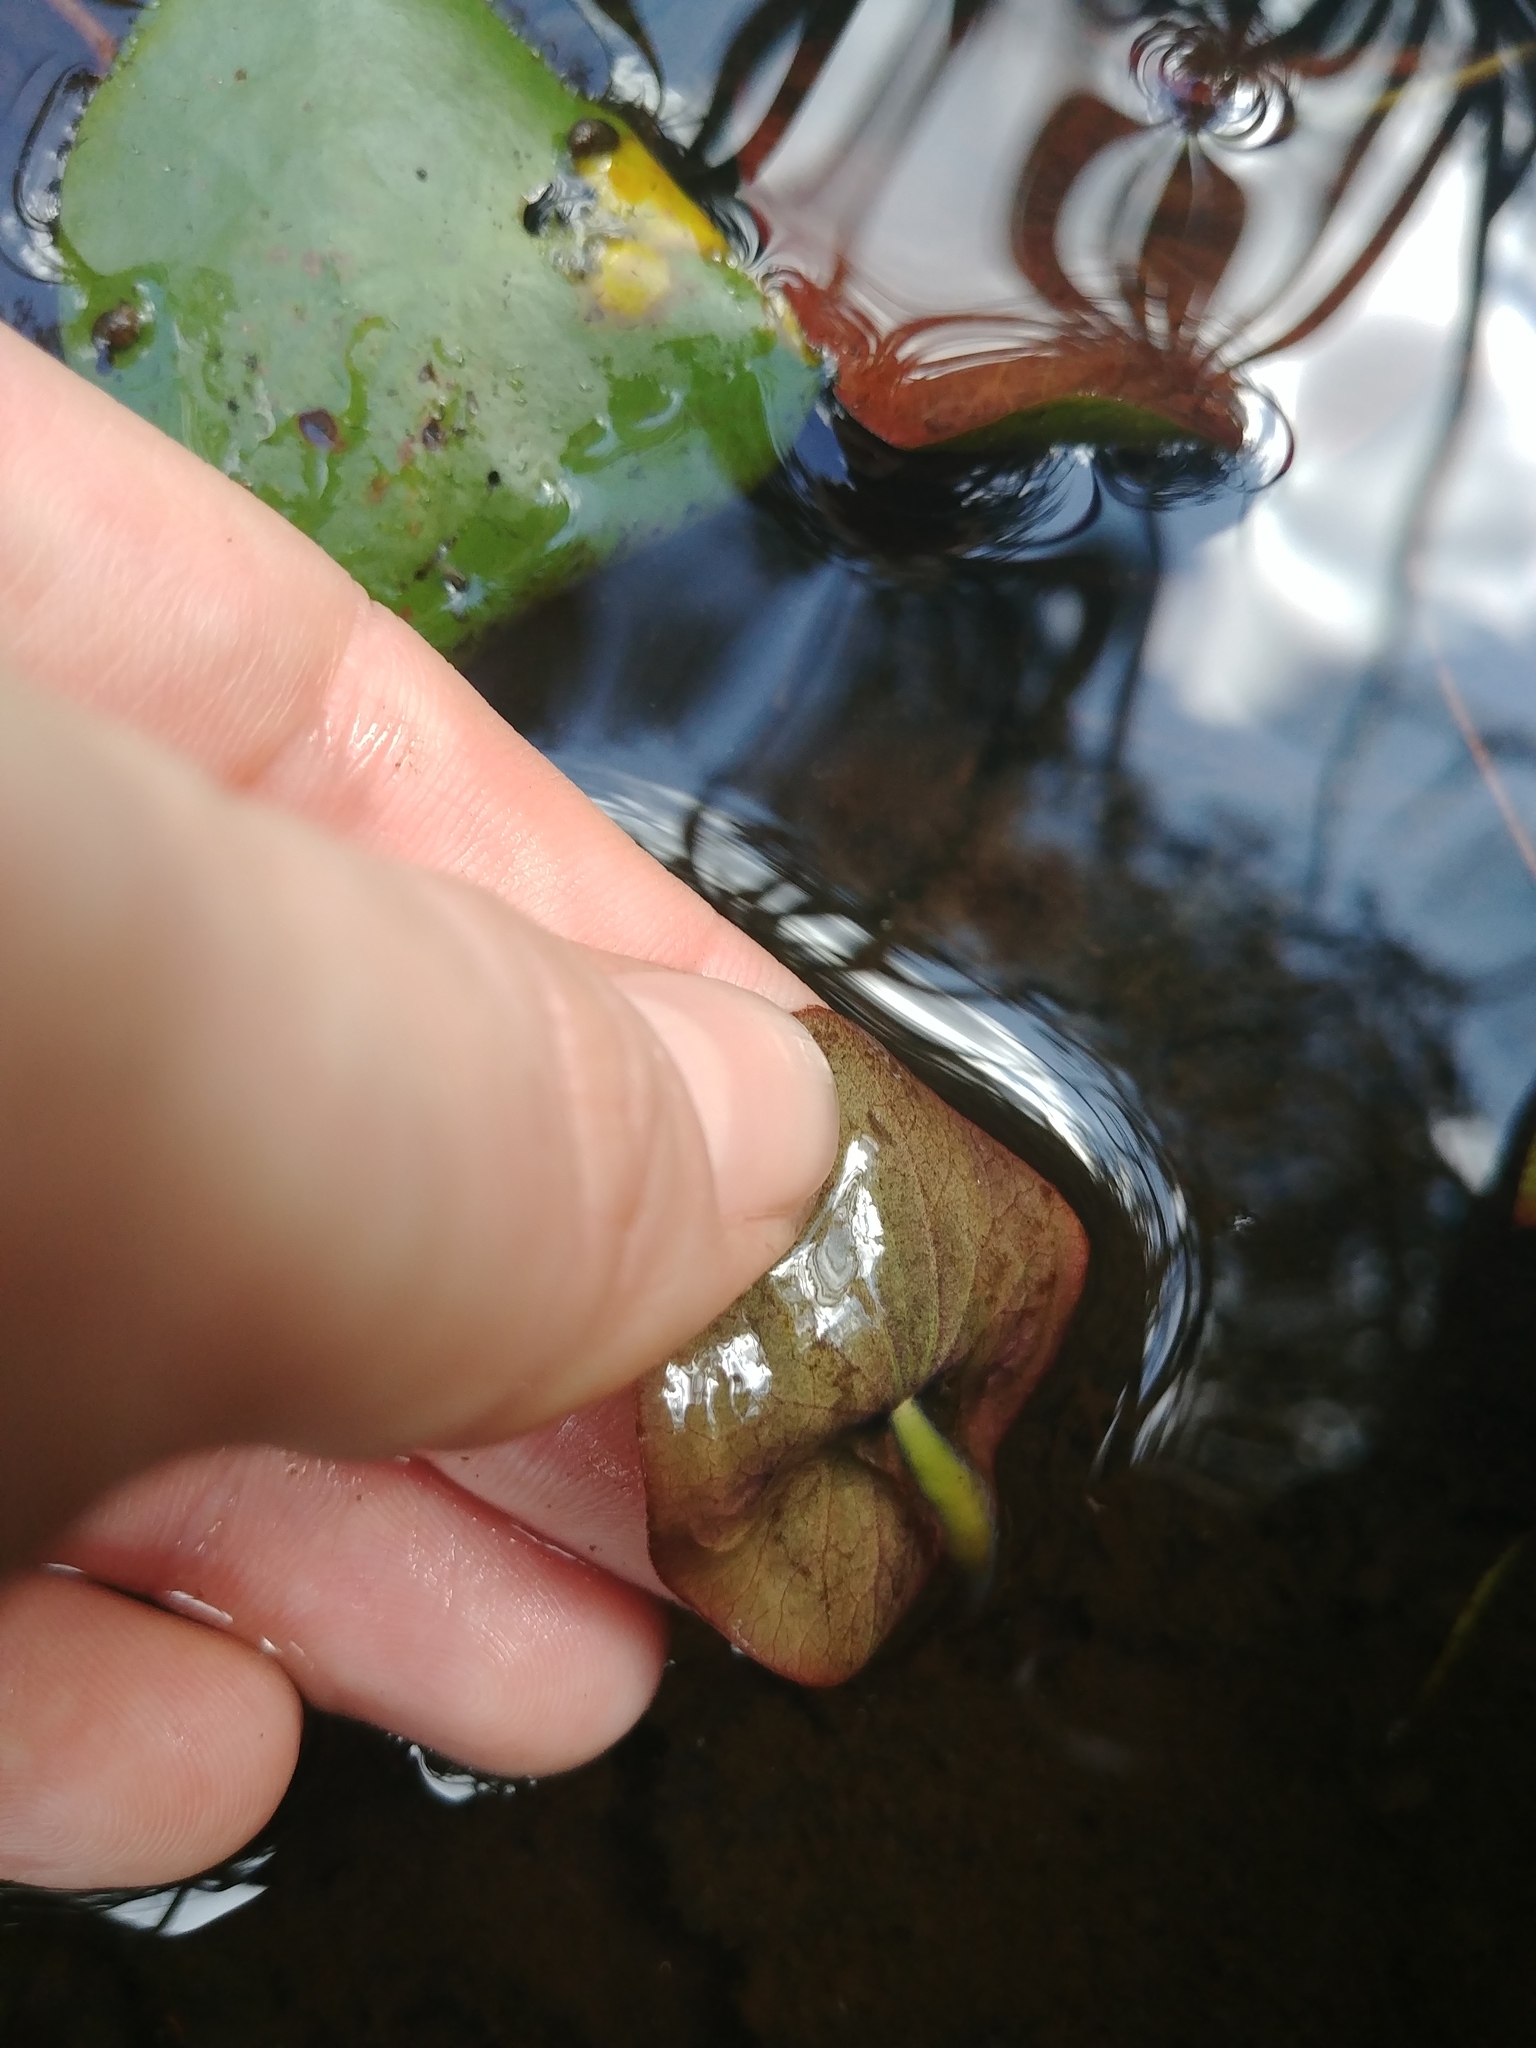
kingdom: Plantae
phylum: Tracheophyta
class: Magnoliopsida
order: Nymphaeales
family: Cabombaceae
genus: Brasenia
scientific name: Brasenia schreberi
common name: Water-shield
